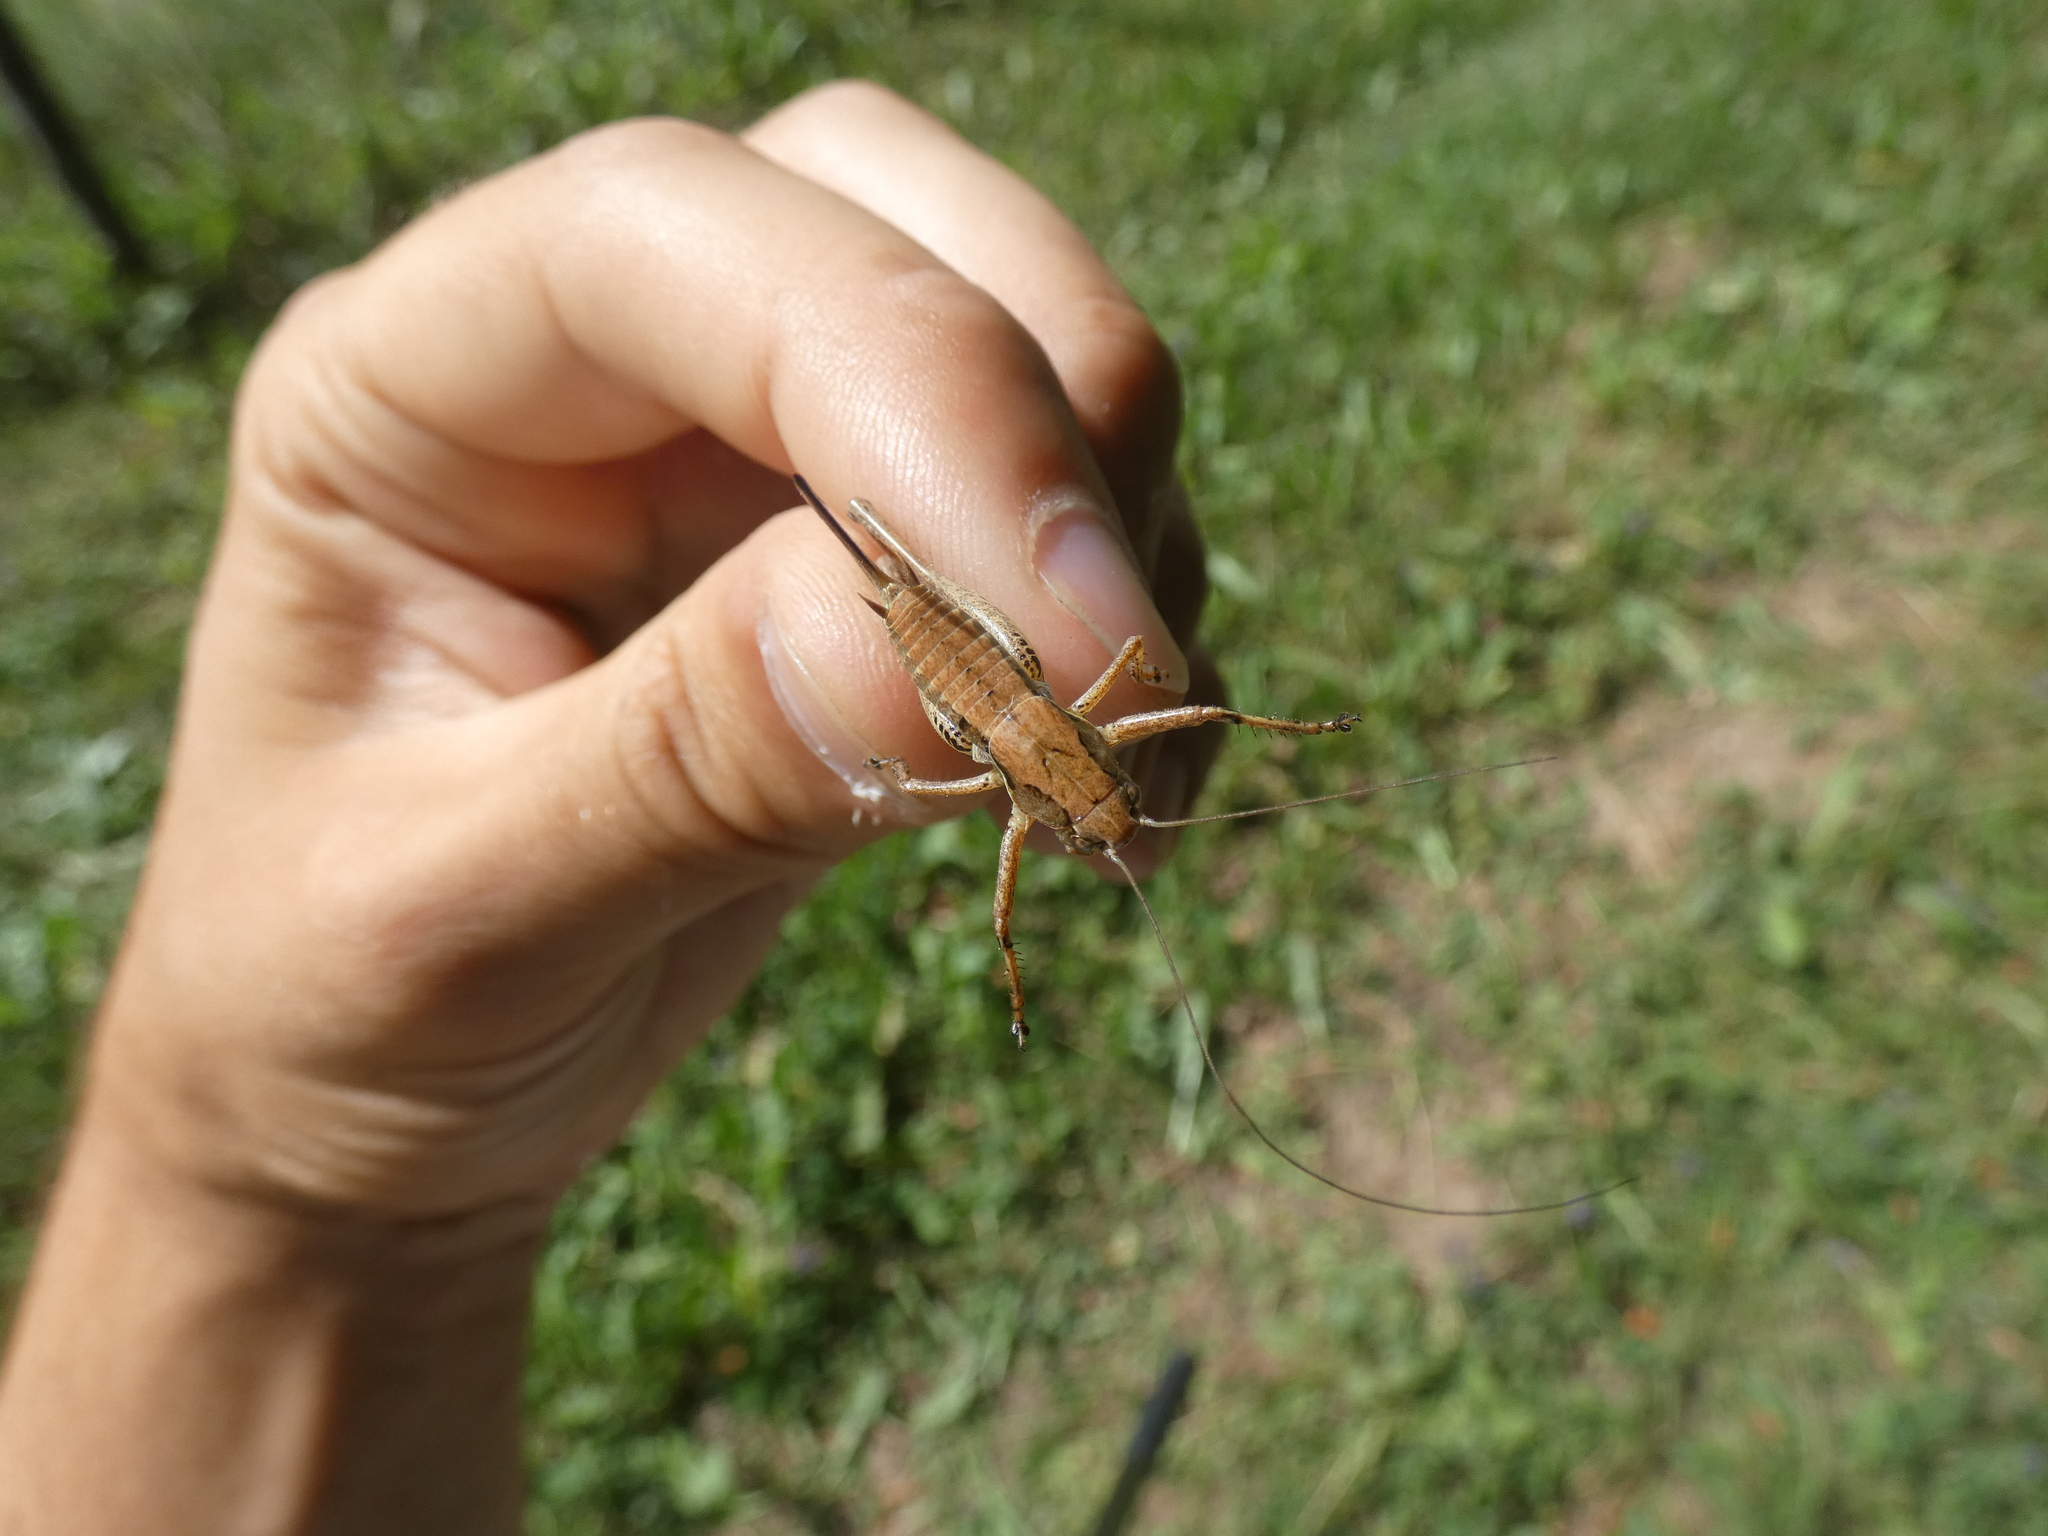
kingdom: Animalia
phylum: Arthropoda
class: Insecta
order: Orthoptera
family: Tettigoniidae
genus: Pholidoptera
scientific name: Pholidoptera griseoaptera
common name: Dark bush-cricket
